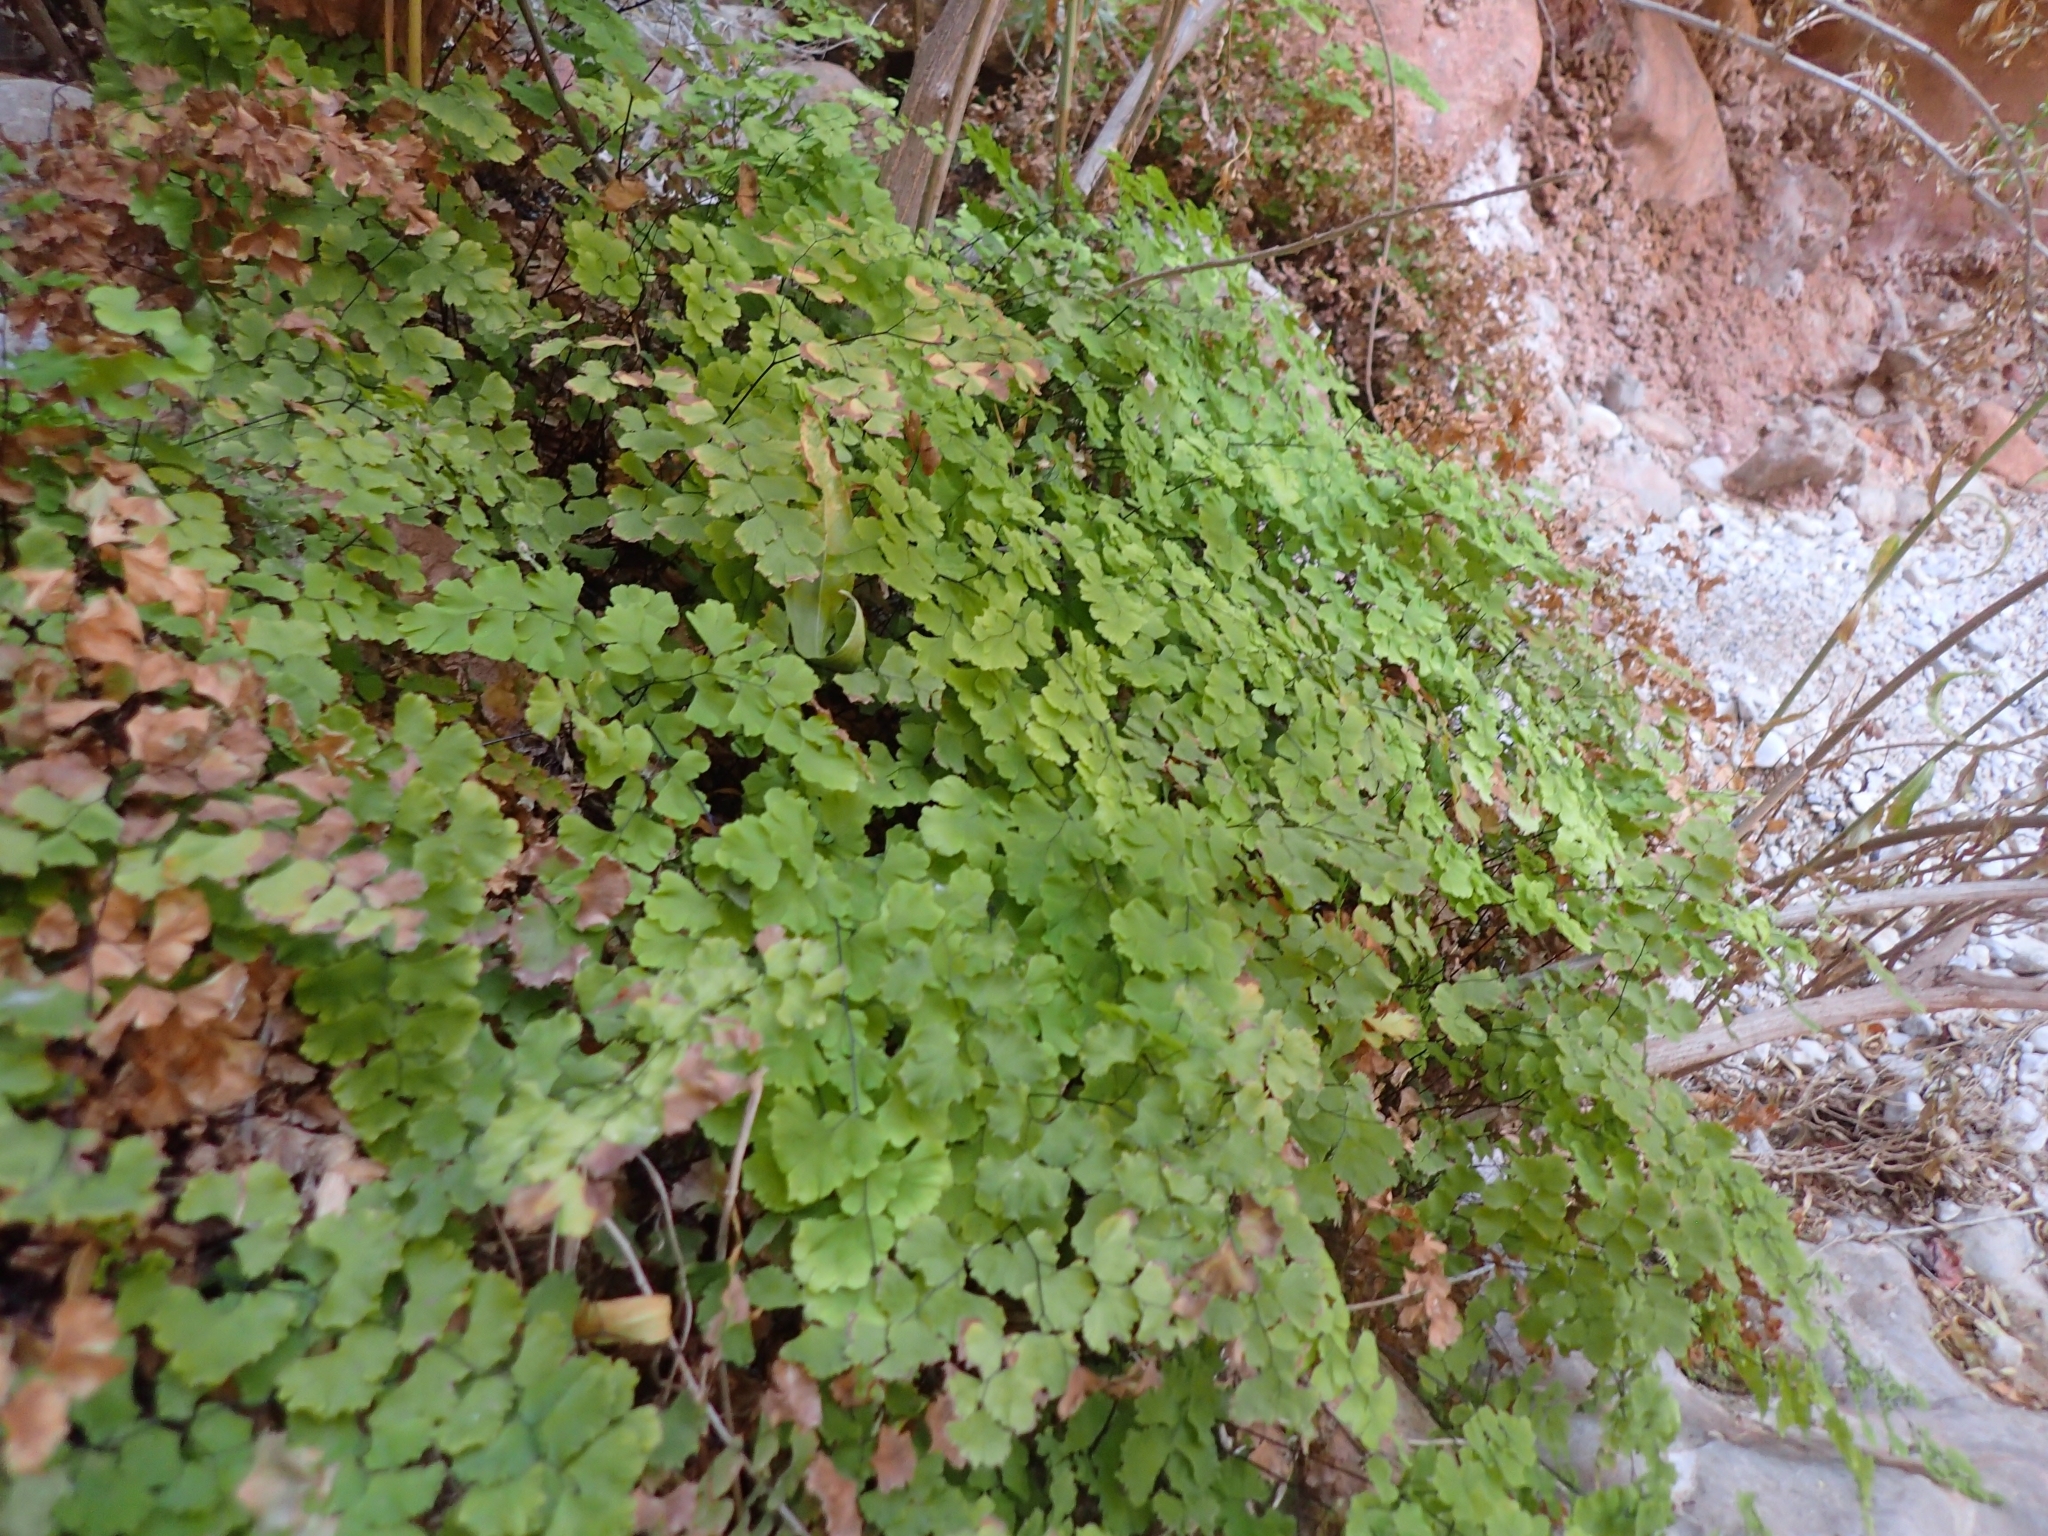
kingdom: Plantae
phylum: Tracheophyta
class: Polypodiopsida
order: Polypodiales
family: Pteridaceae
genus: Adiantum
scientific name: Adiantum capillus-veneris
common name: Maidenhair fern
